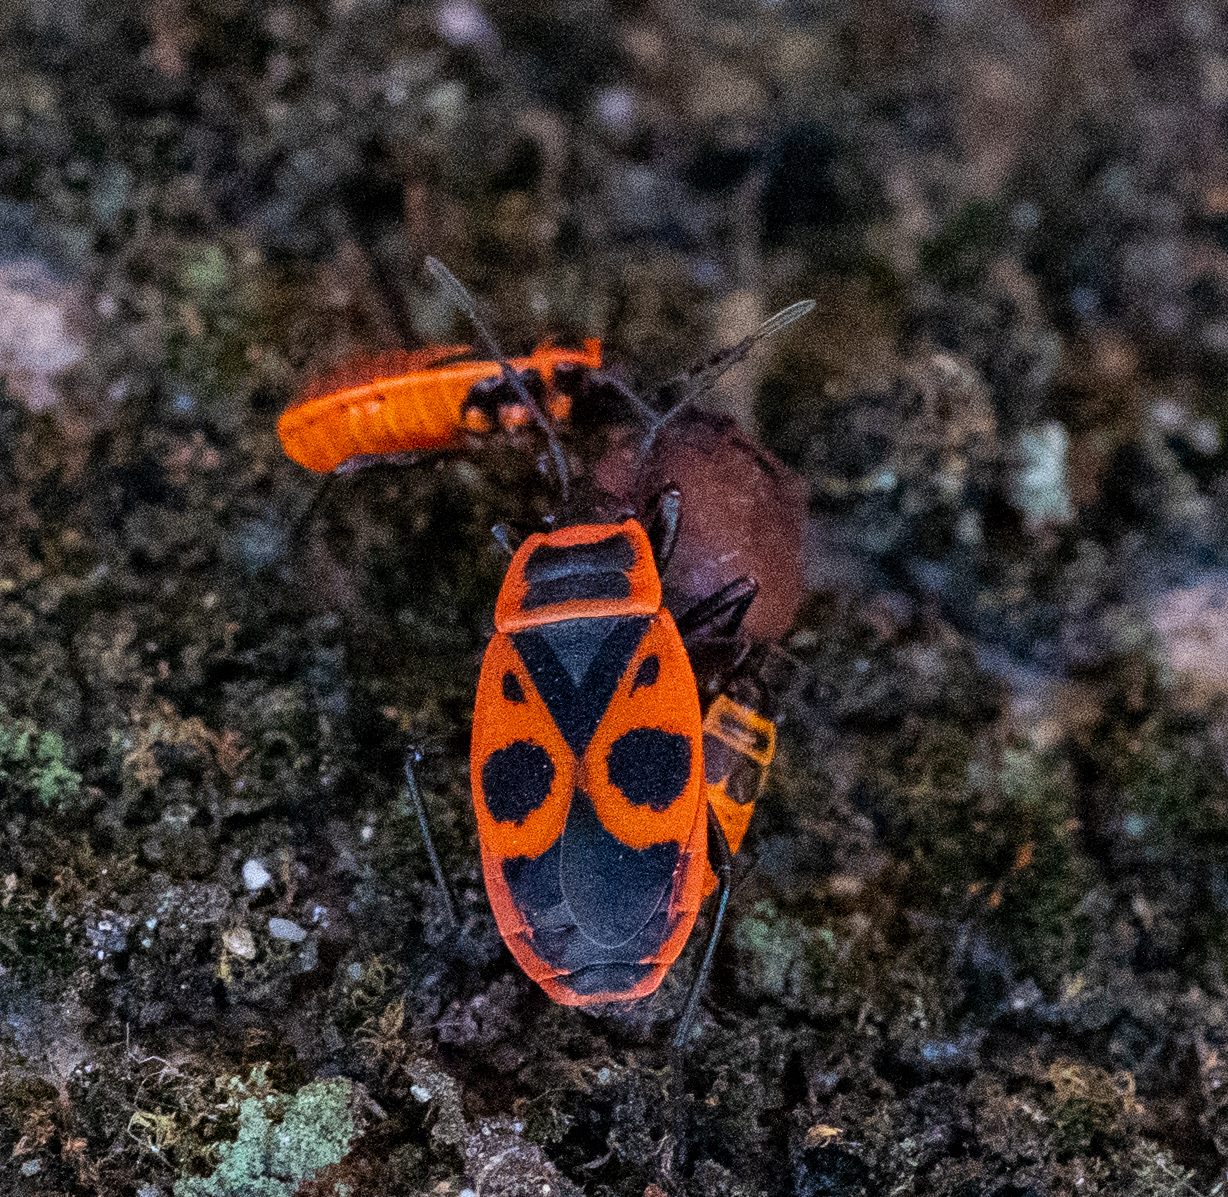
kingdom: Animalia
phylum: Arthropoda
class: Insecta
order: Hemiptera
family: Pyrrhocoridae
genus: Pyrrhocoris
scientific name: Pyrrhocoris apterus
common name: Firebug
